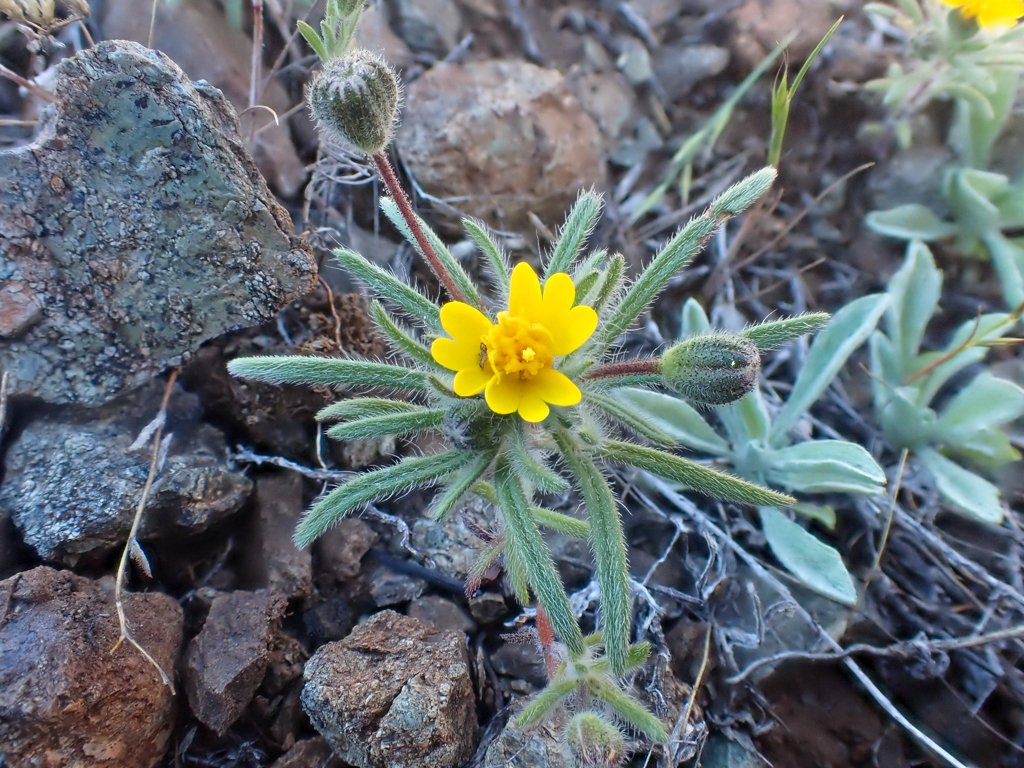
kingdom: Plantae
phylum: Tracheophyta
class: Magnoliopsida
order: Asterales
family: Asteraceae
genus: Harmonia
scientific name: Harmonia hallii
